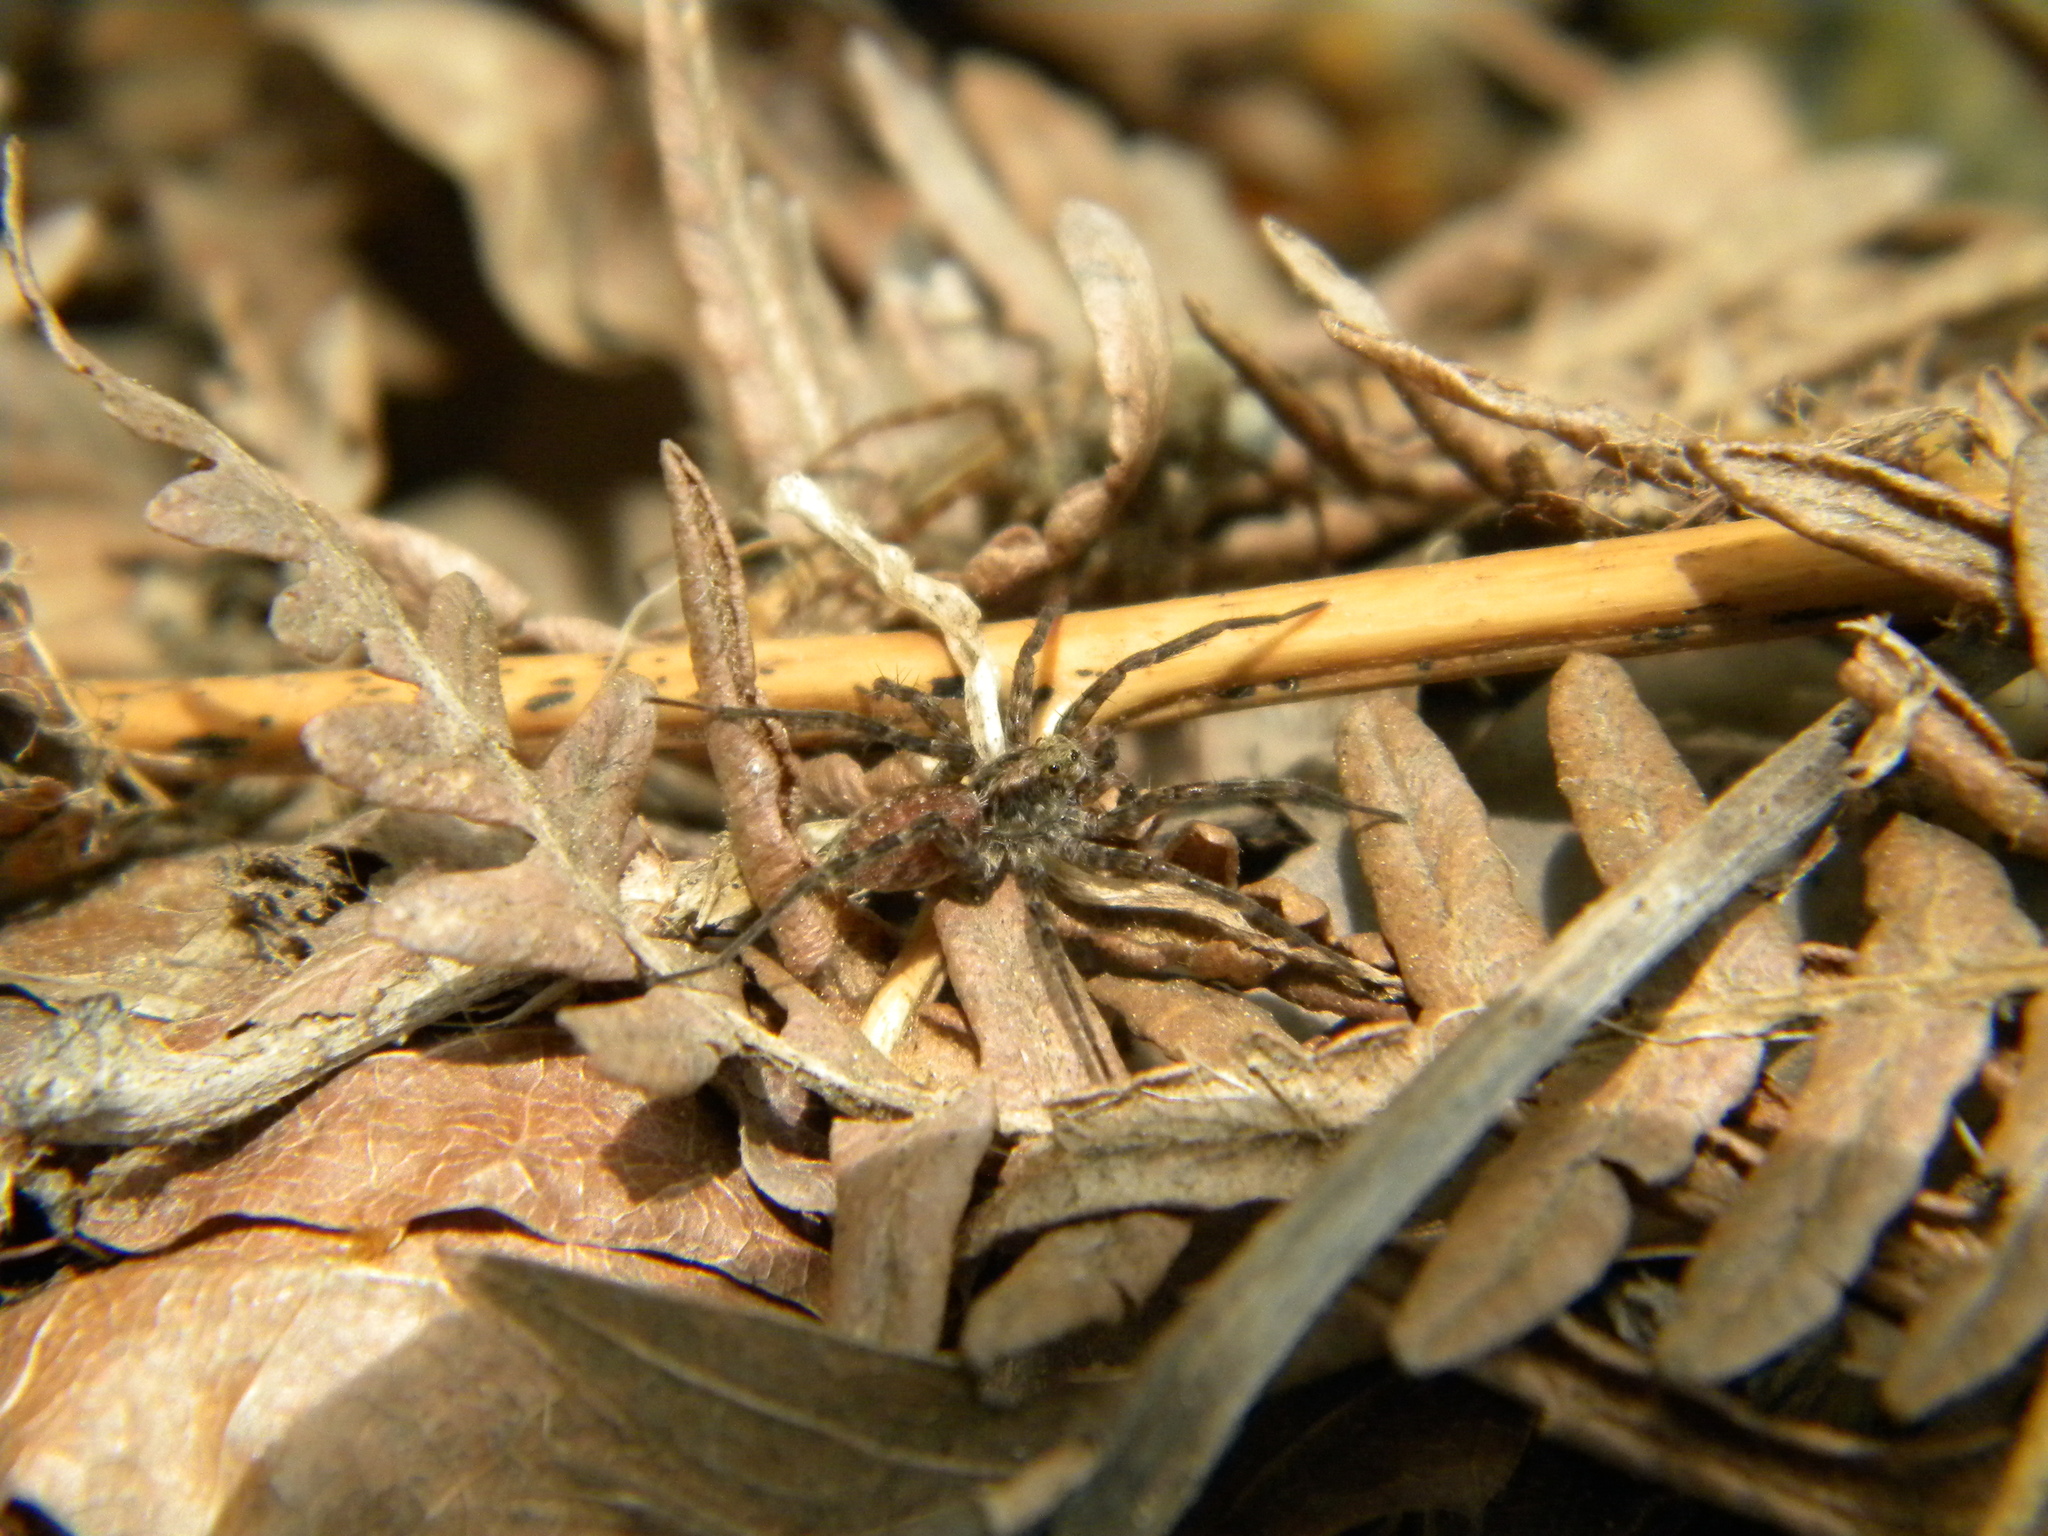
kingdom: Animalia
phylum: Arthropoda
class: Arachnida
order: Araneae
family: Lycosidae
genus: Pardosa
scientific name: Pardosa
